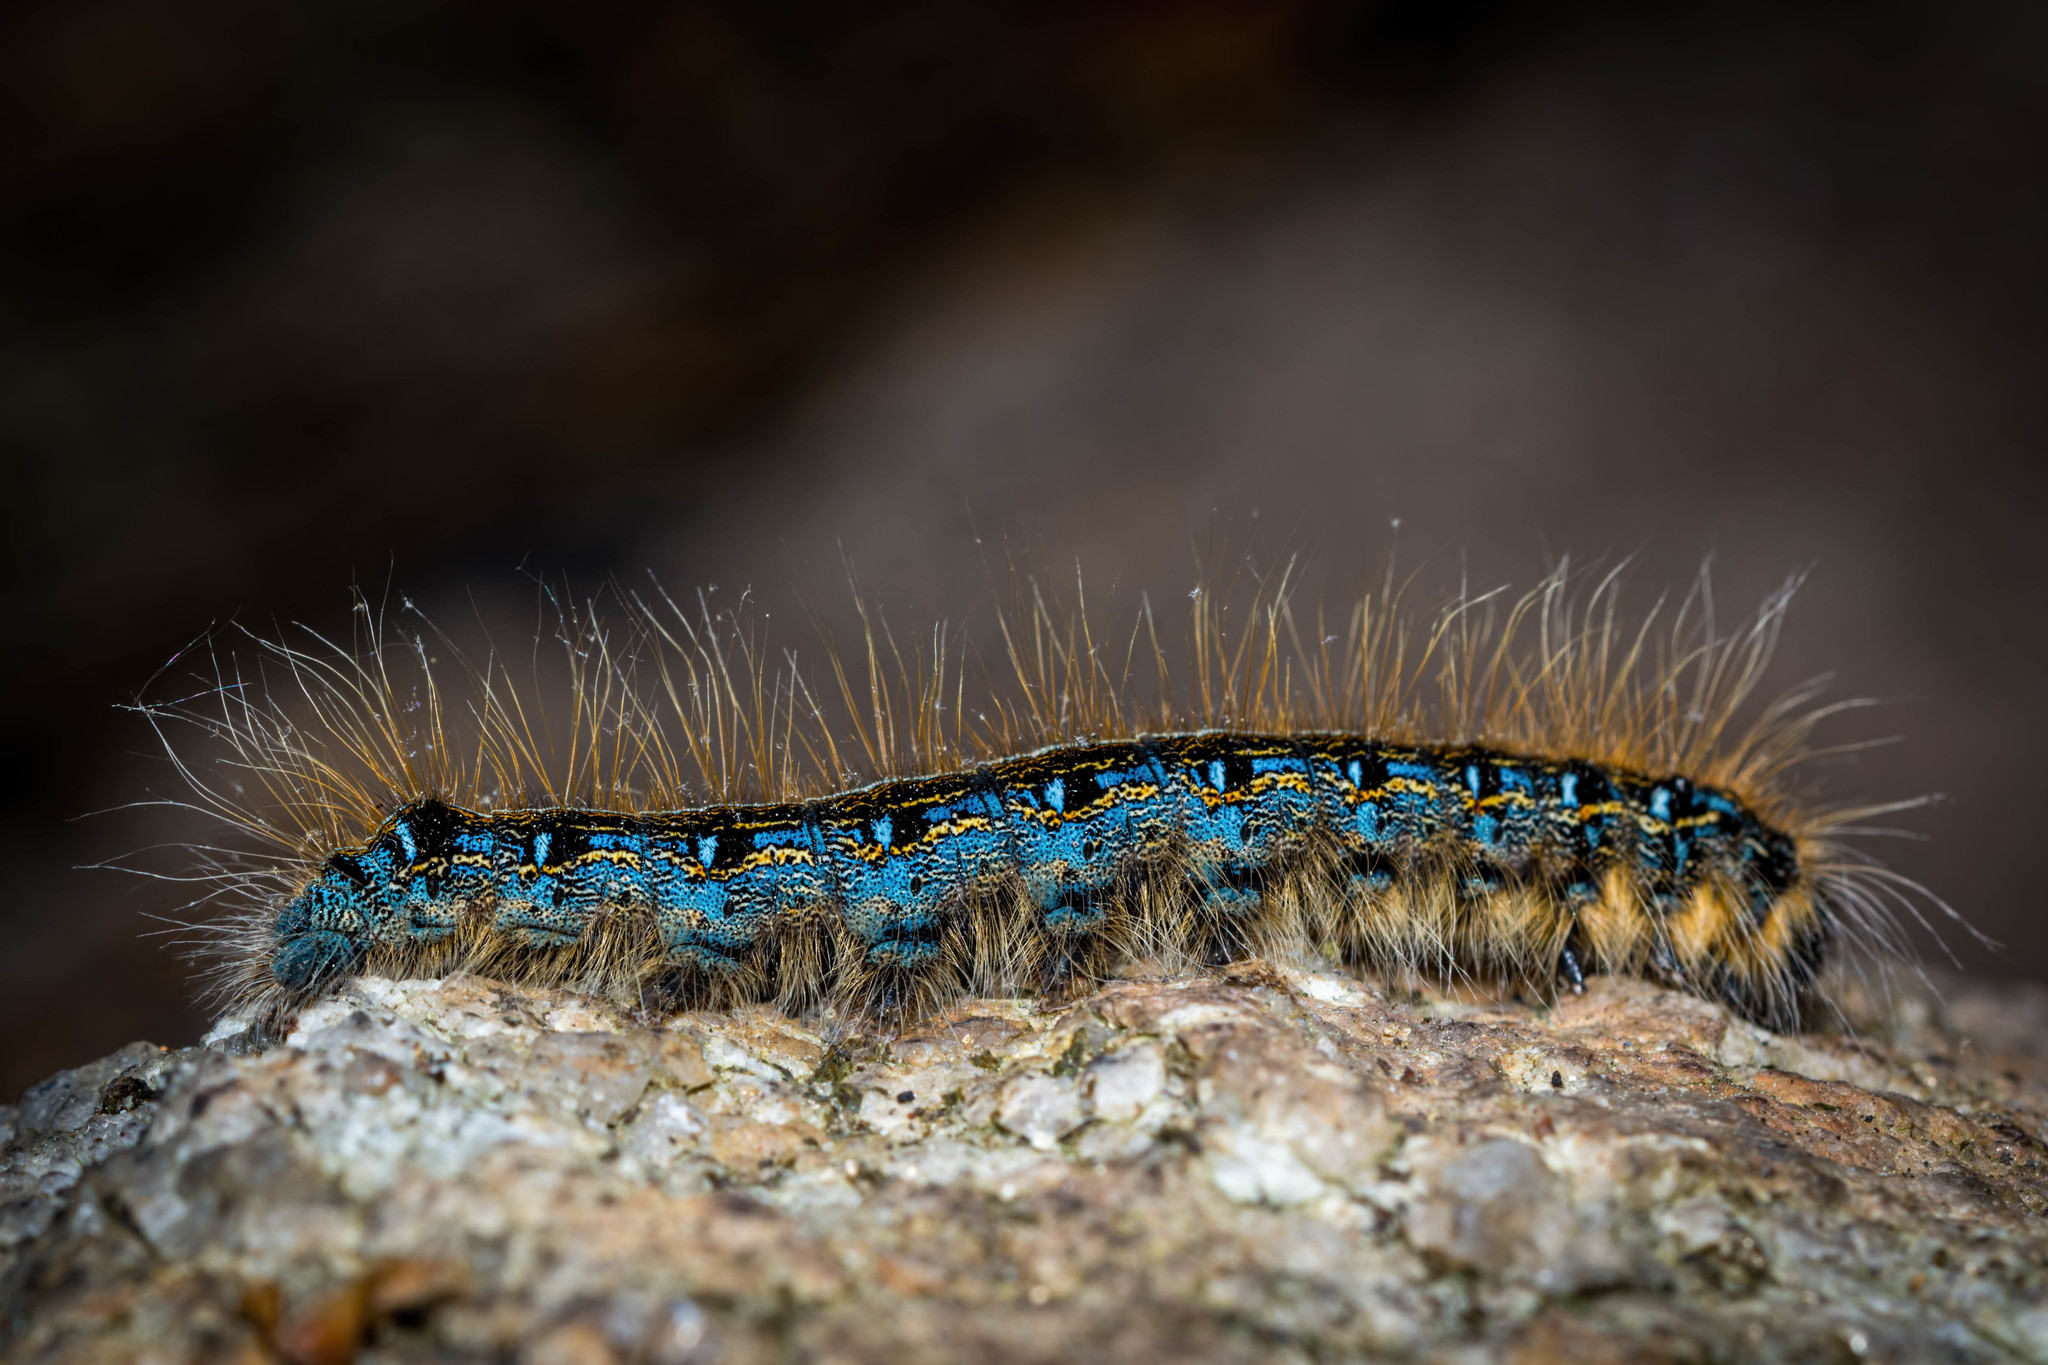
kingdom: Animalia
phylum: Arthropoda
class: Insecta
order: Lepidoptera
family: Lasiocampidae
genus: Malacosoma
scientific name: Malacosoma americana
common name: Eastern tent caterpillar moth
